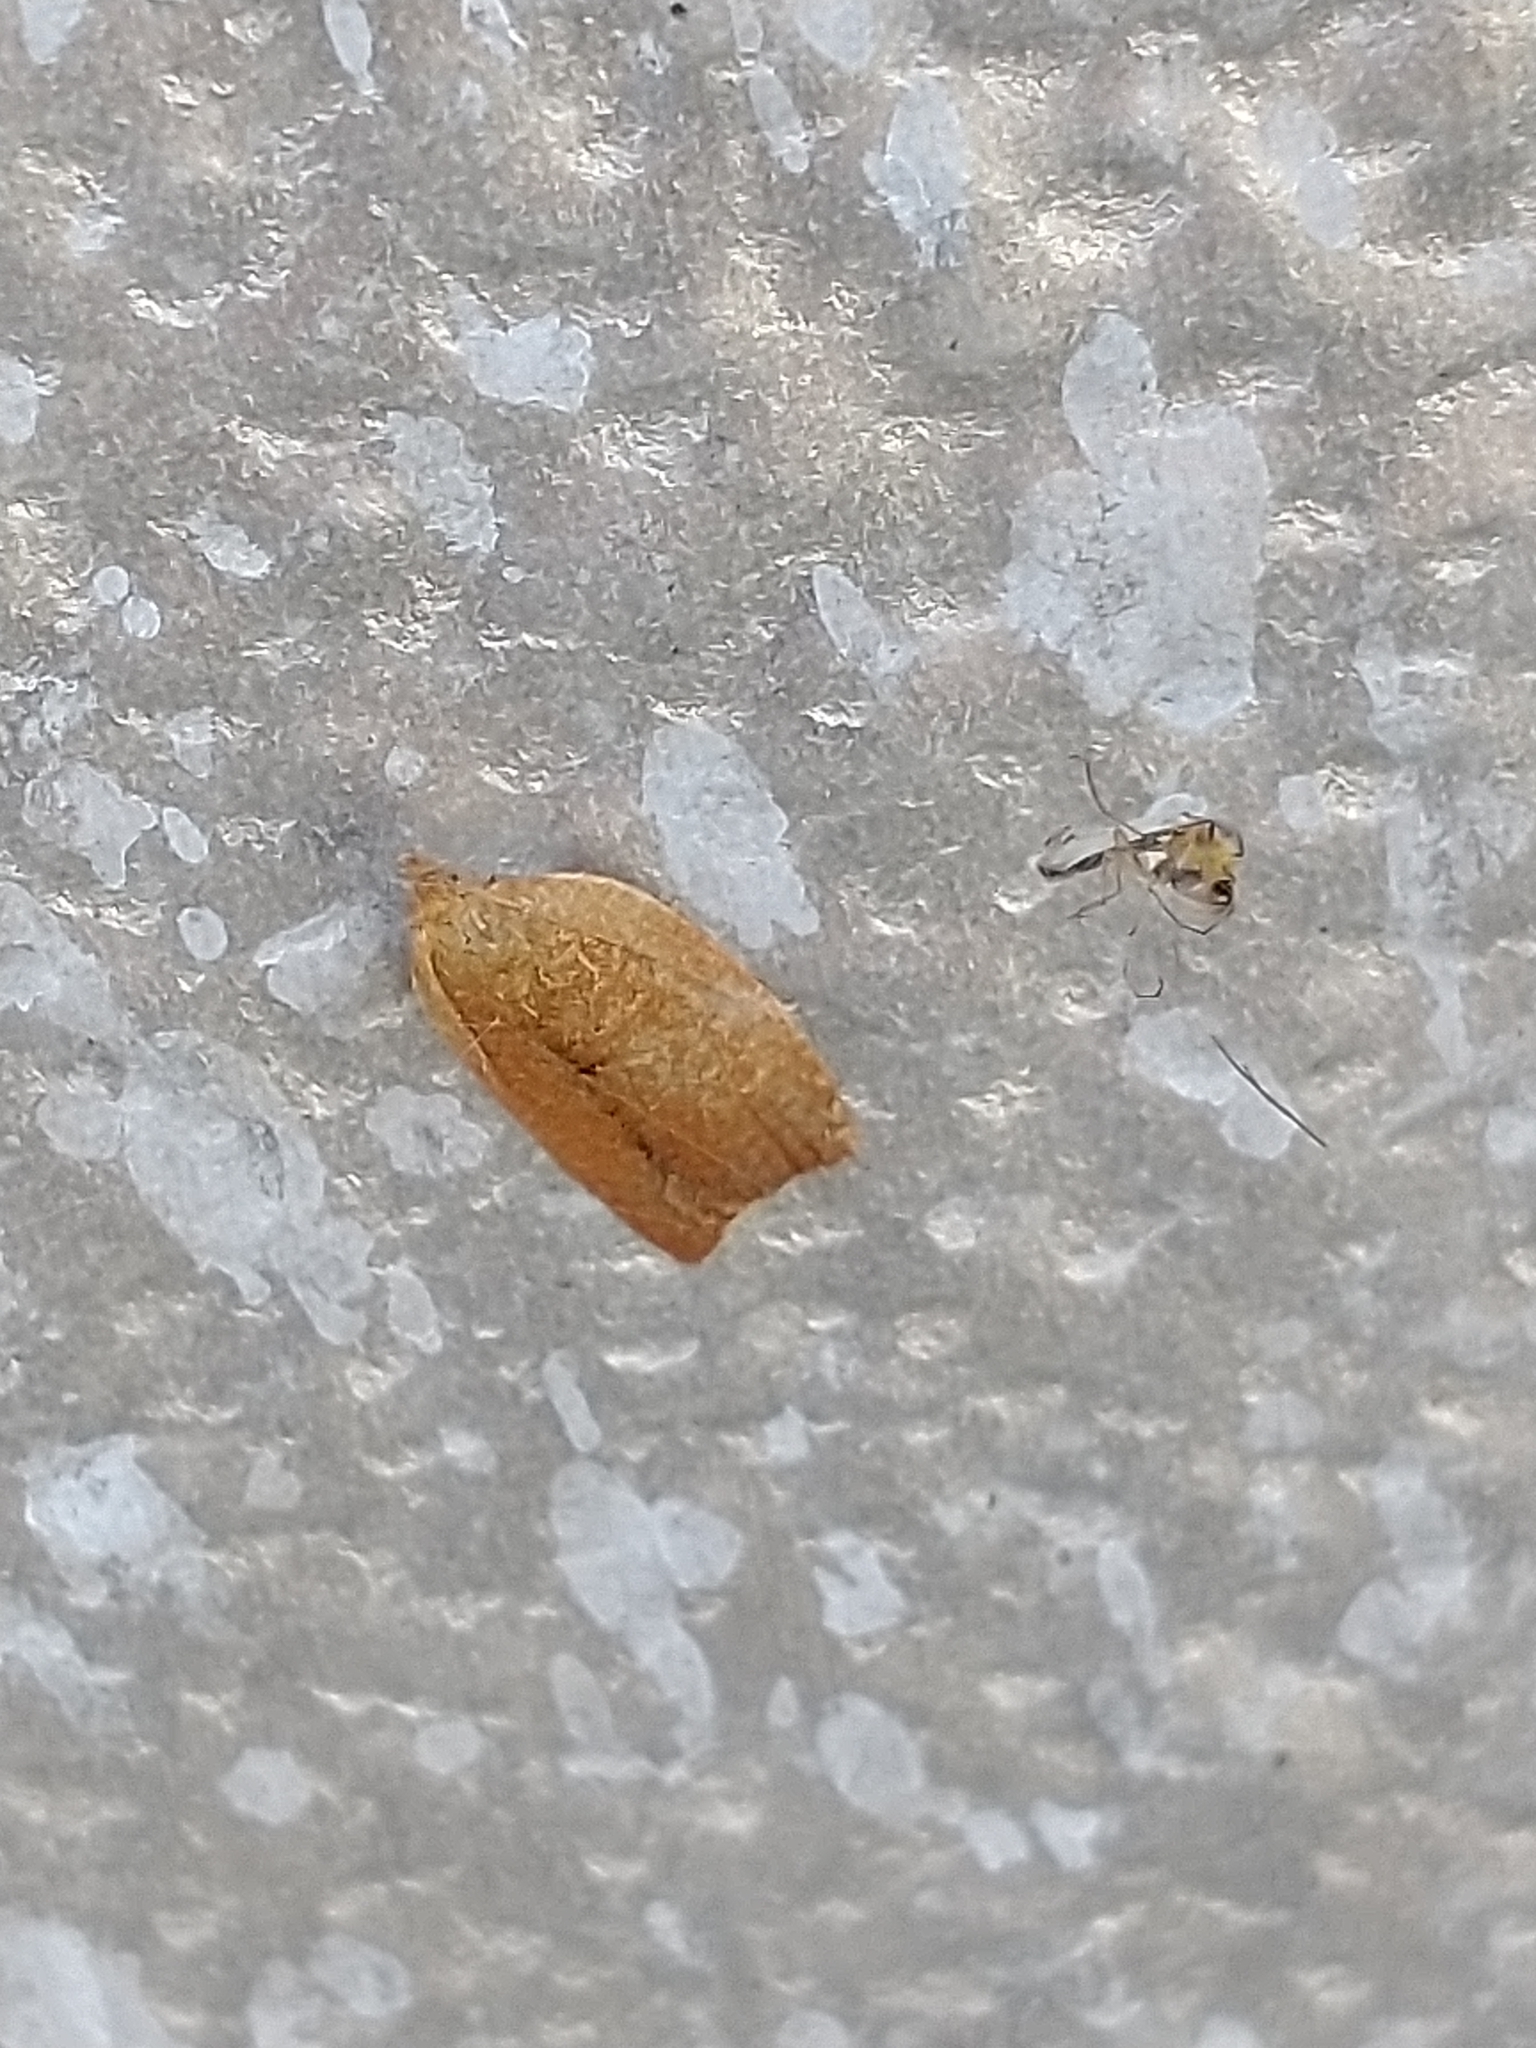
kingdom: Animalia
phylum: Arthropoda
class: Insecta
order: Lepidoptera
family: Tortricidae
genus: Clepsis
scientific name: Clepsis consimilana
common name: Privet tortrix
